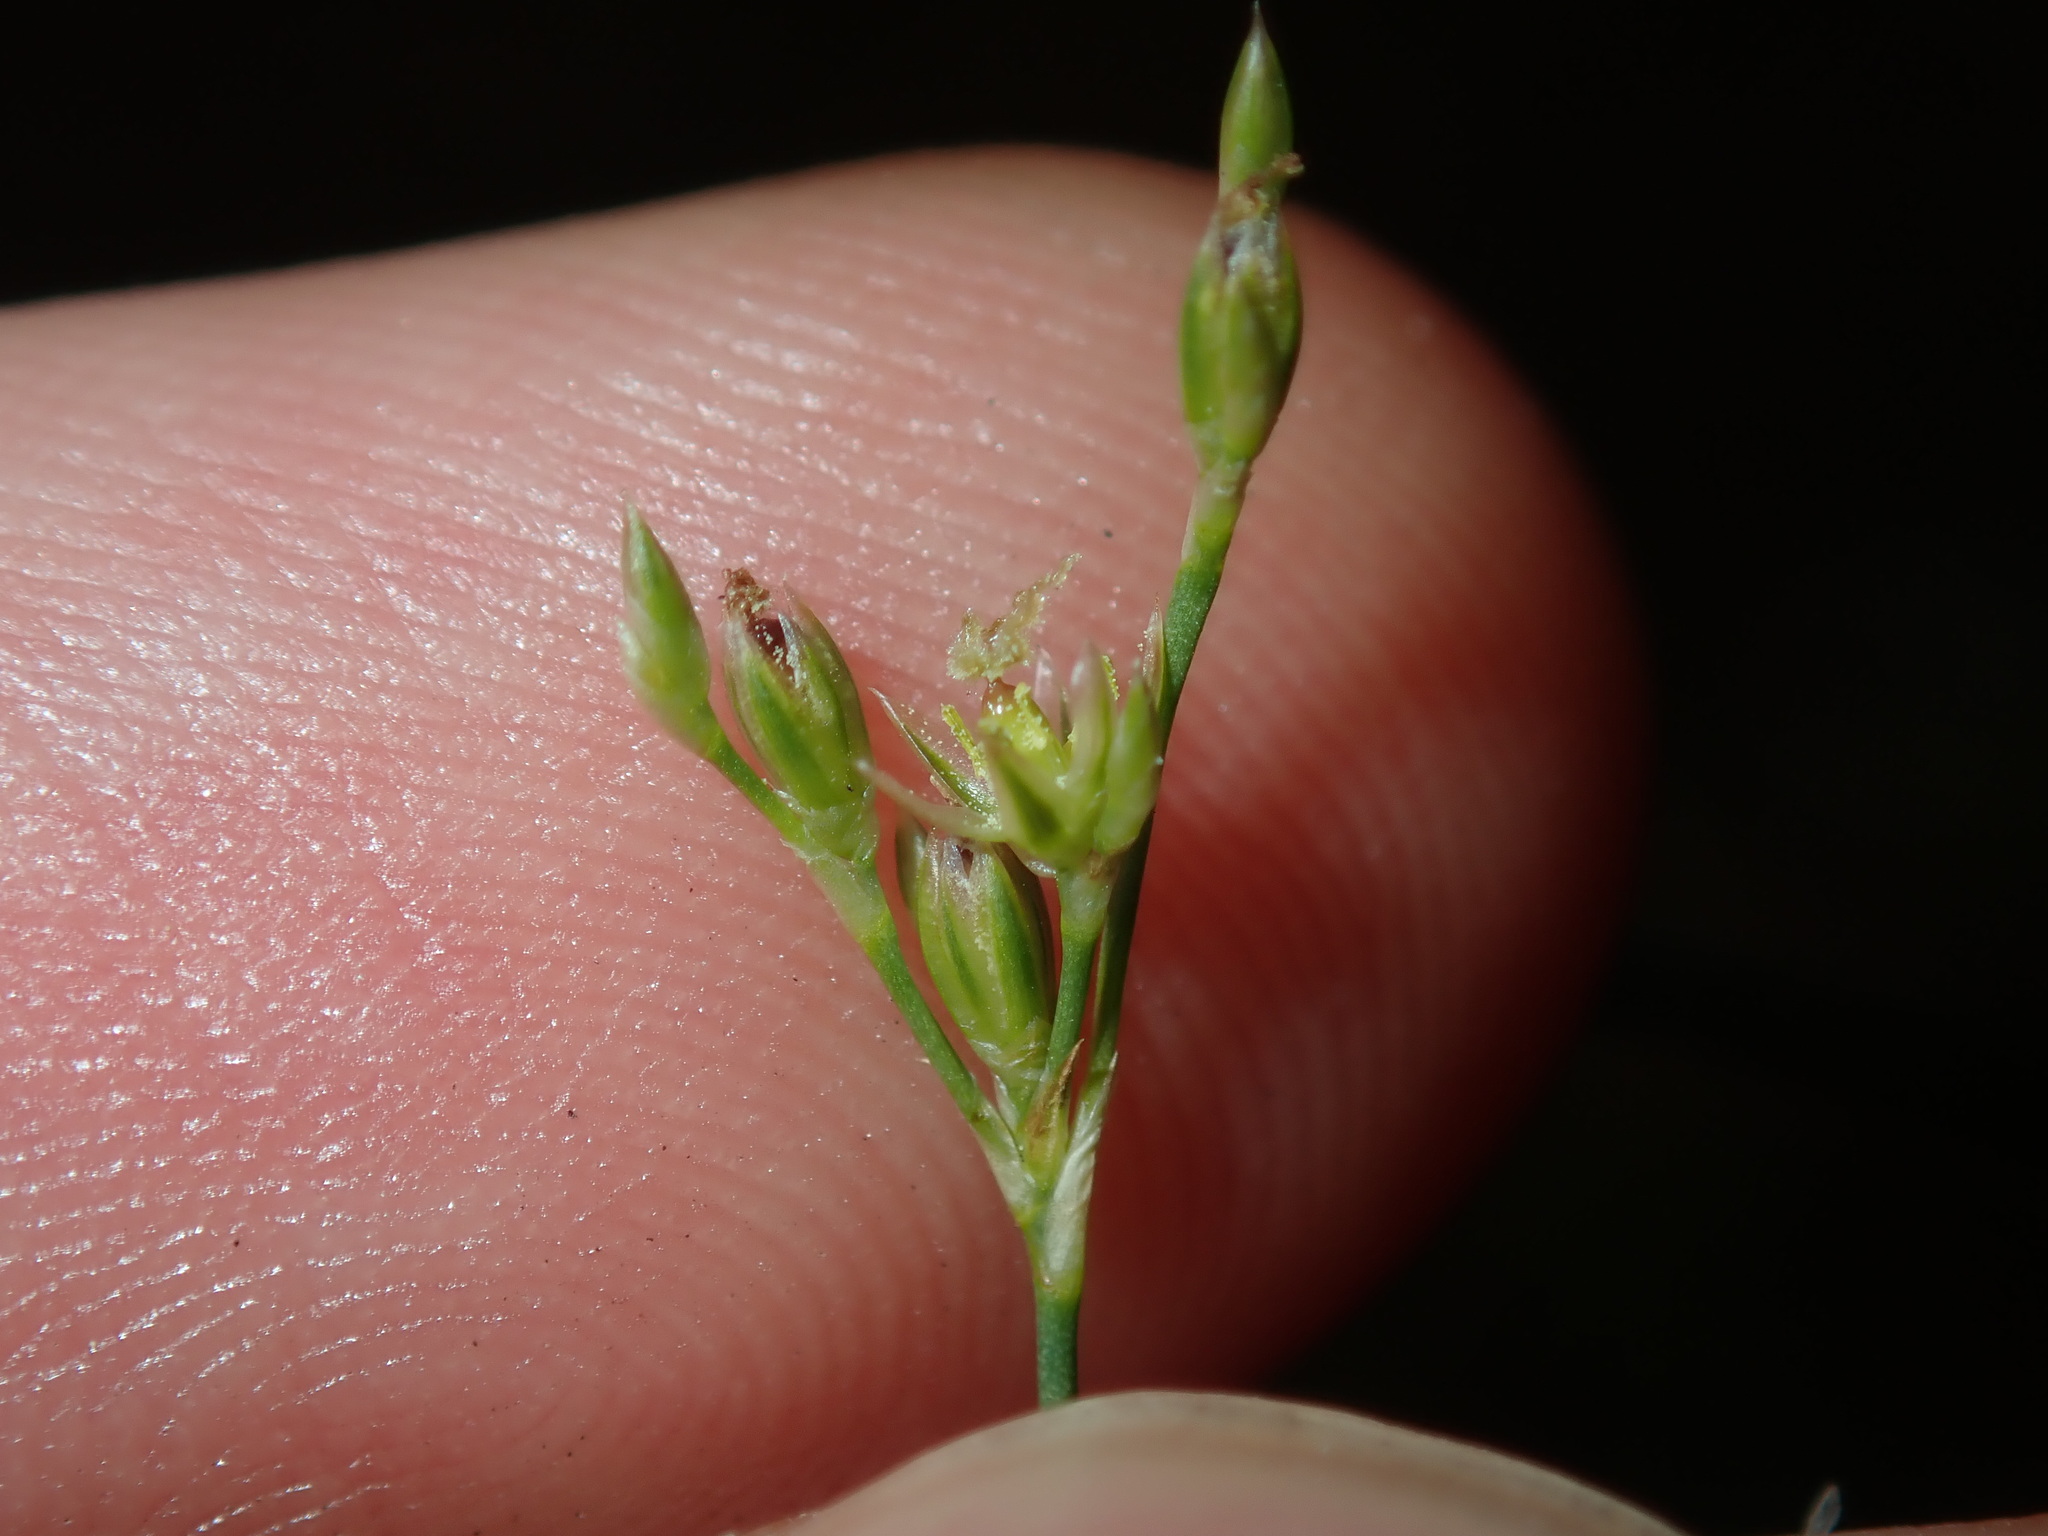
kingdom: Plantae
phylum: Tracheophyta
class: Liliopsida
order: Poales
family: Juncaceae
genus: Juncus
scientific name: Juncus subsecundus
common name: Fingered rush
